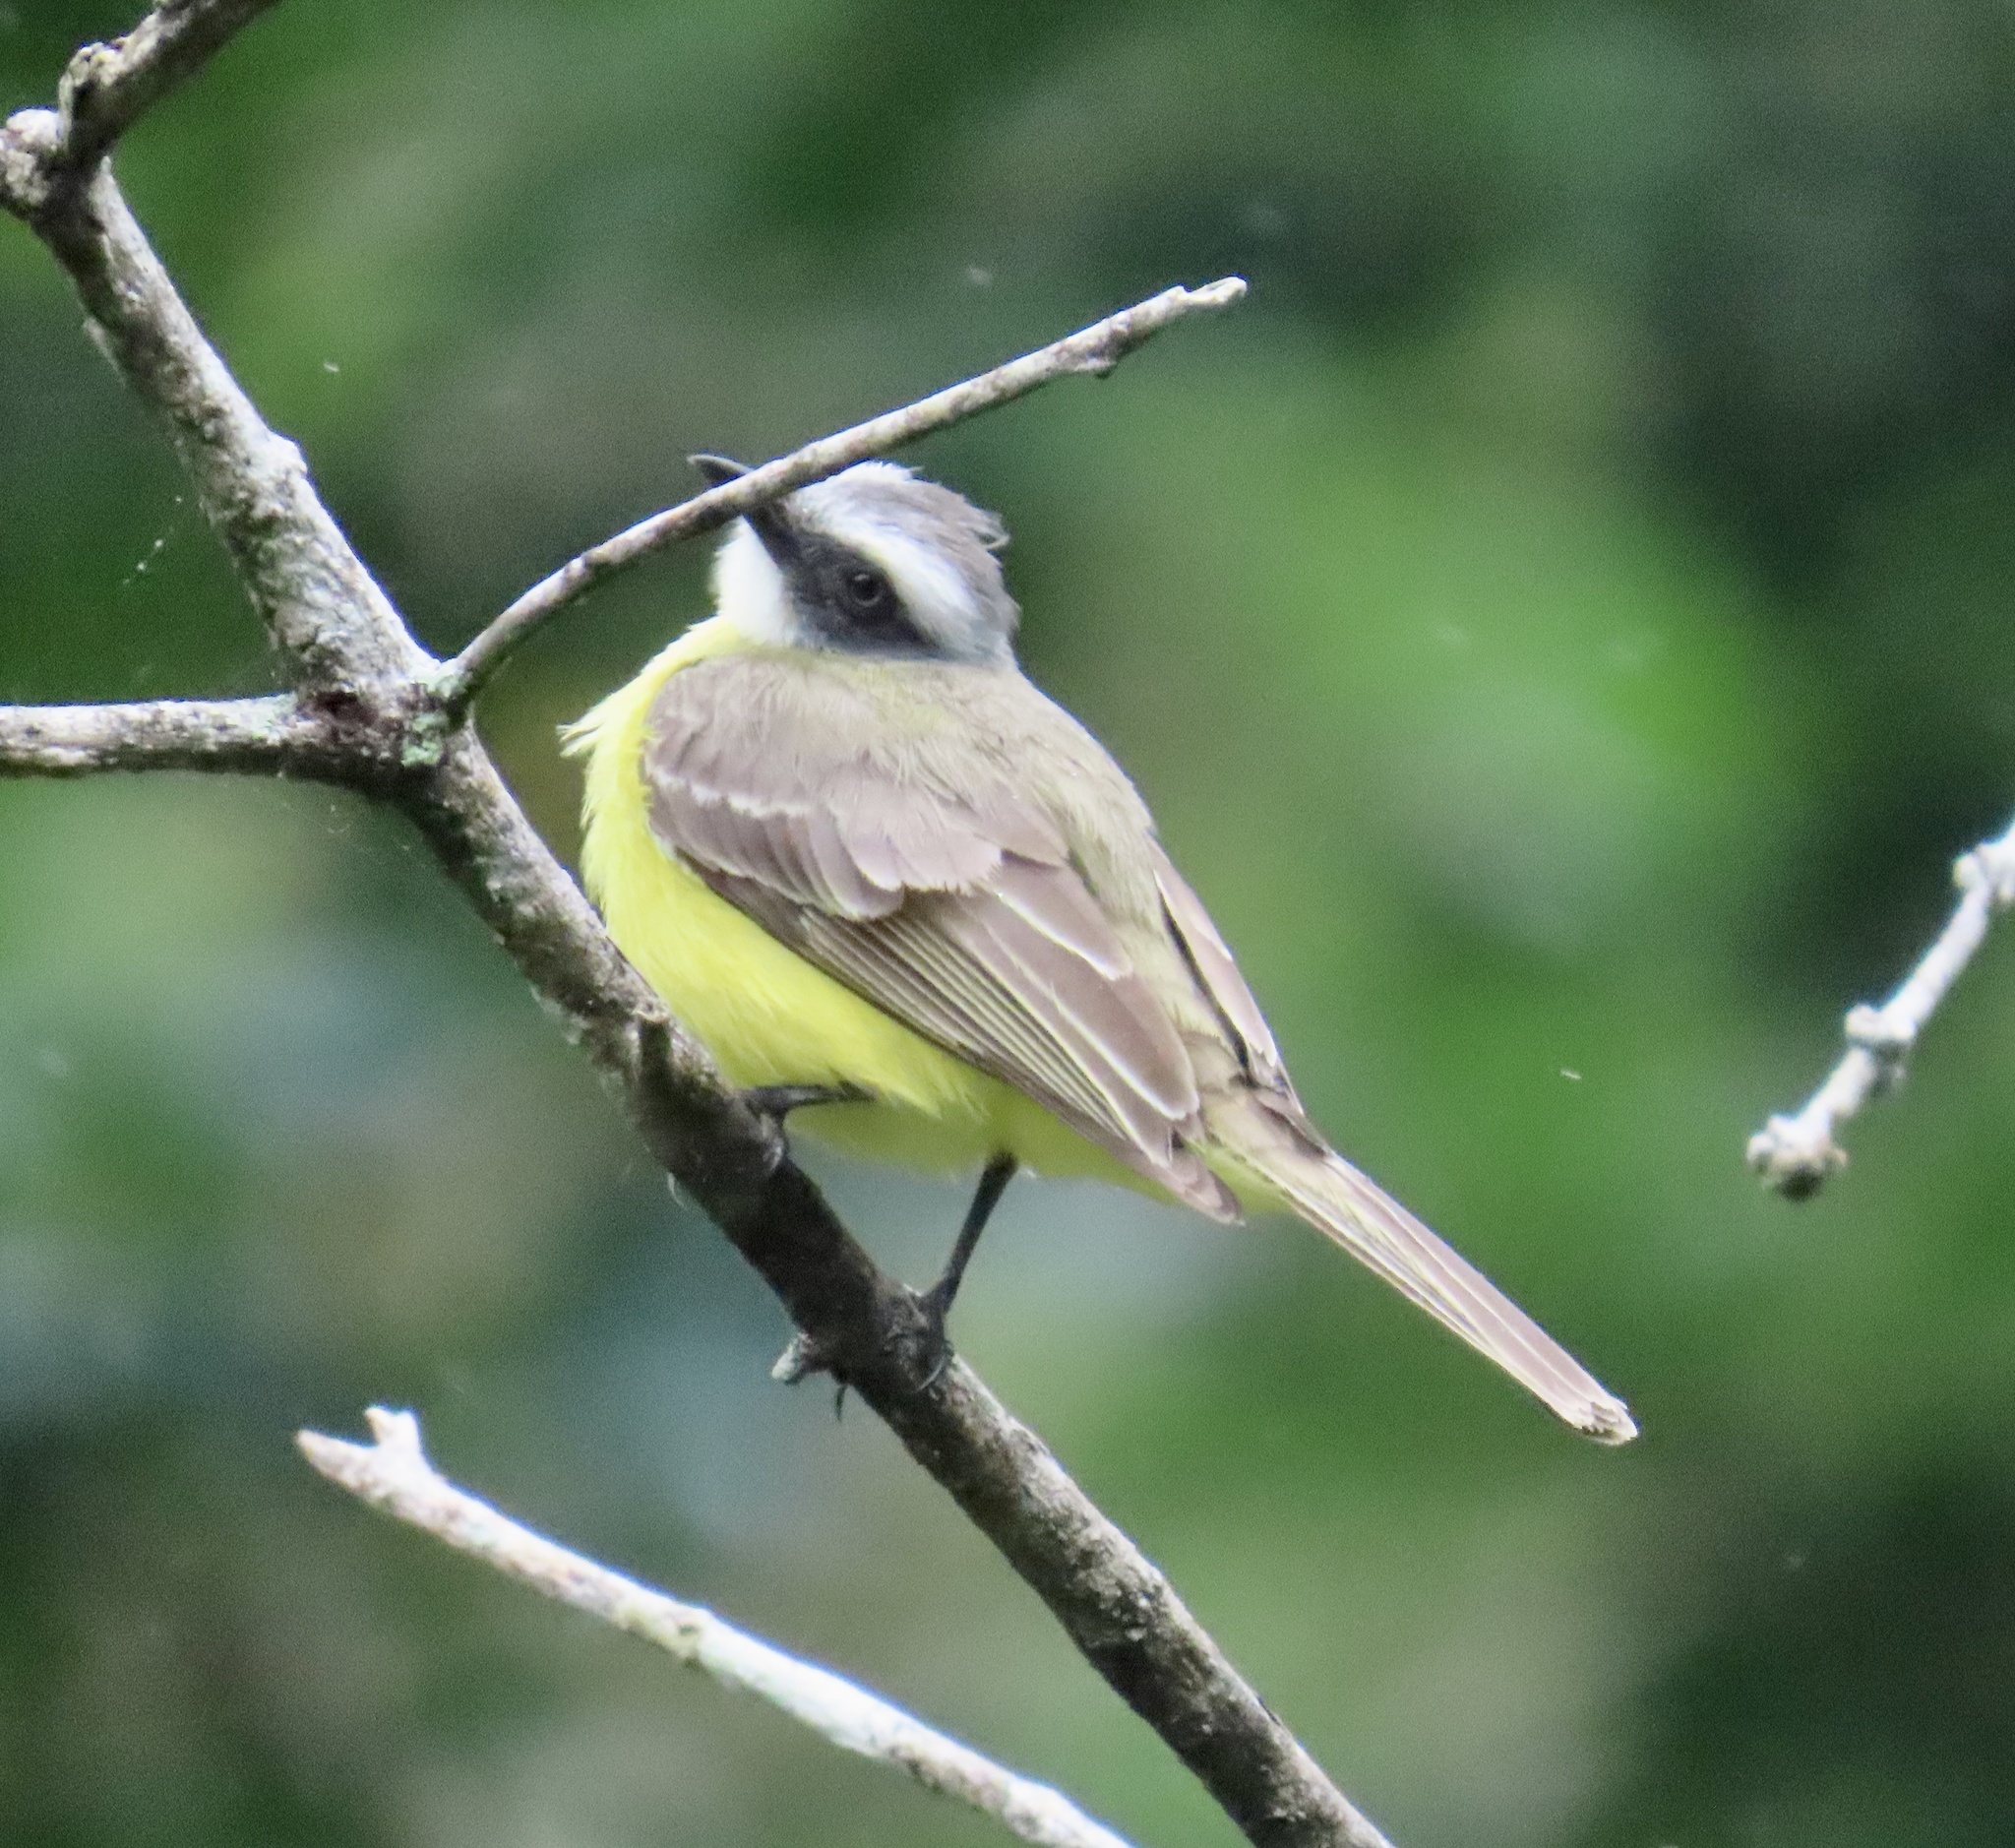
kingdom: Animalia
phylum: Chordata
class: Aves
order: Passeriformes
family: Tyrannidae
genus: Myiozetetes
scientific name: Myiozetetes similis
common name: Social flycatcher
